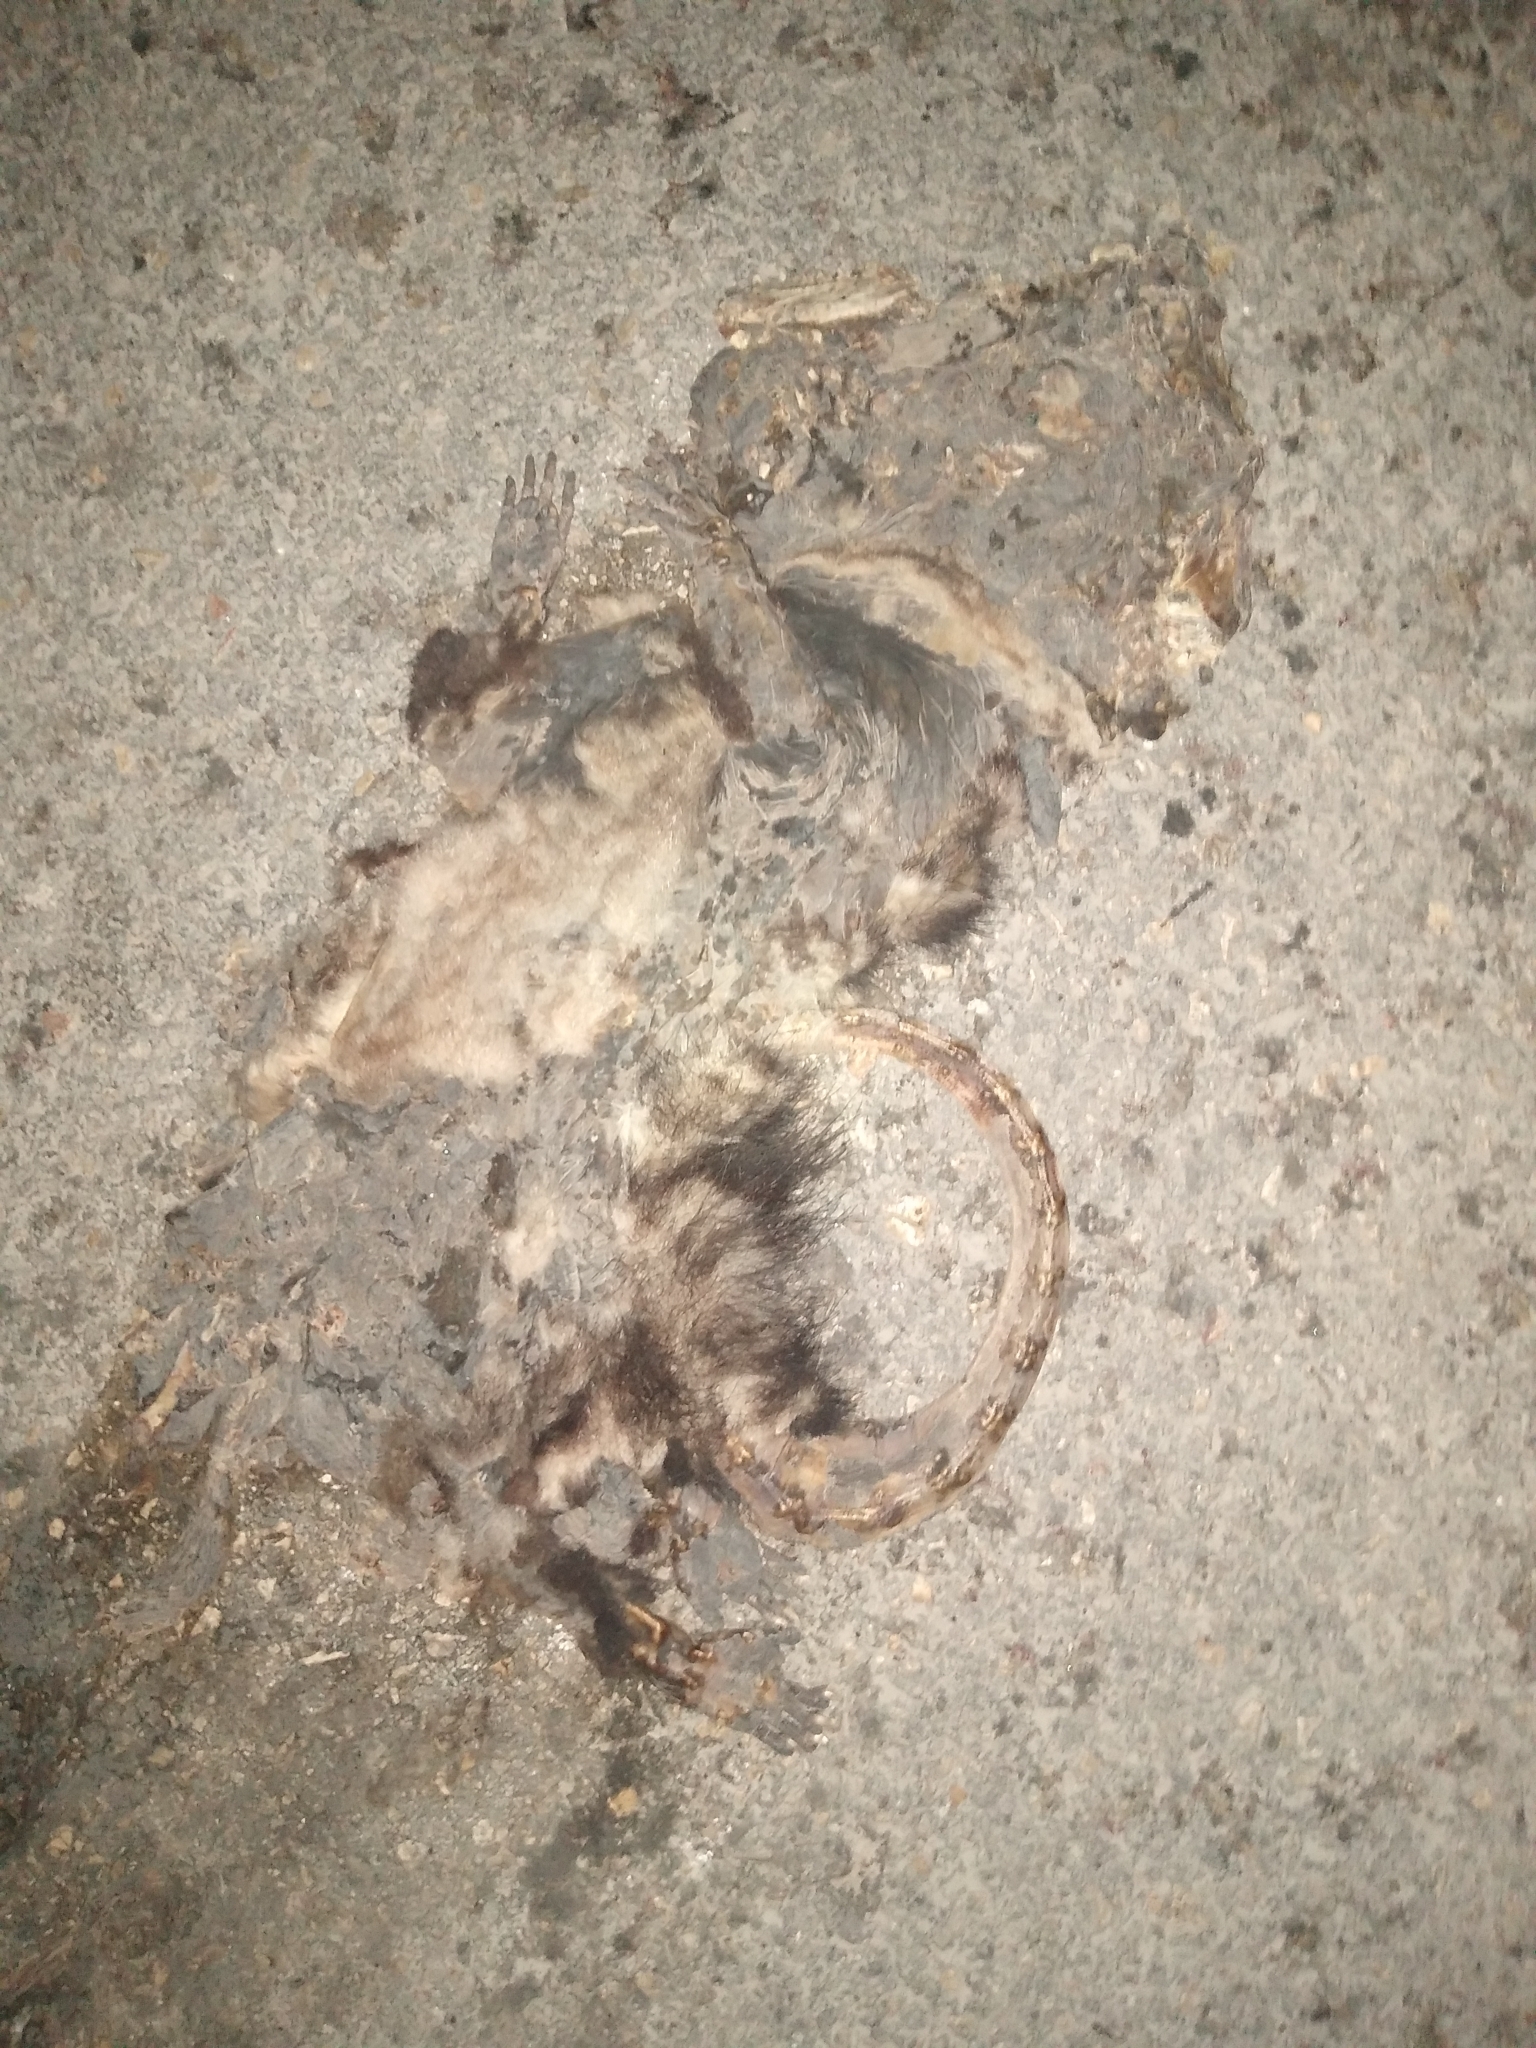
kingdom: Animalia
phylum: Chordata
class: Mammalia
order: Didelphimorphia
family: Didelphidae
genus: Didelphis
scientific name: Didelphis
